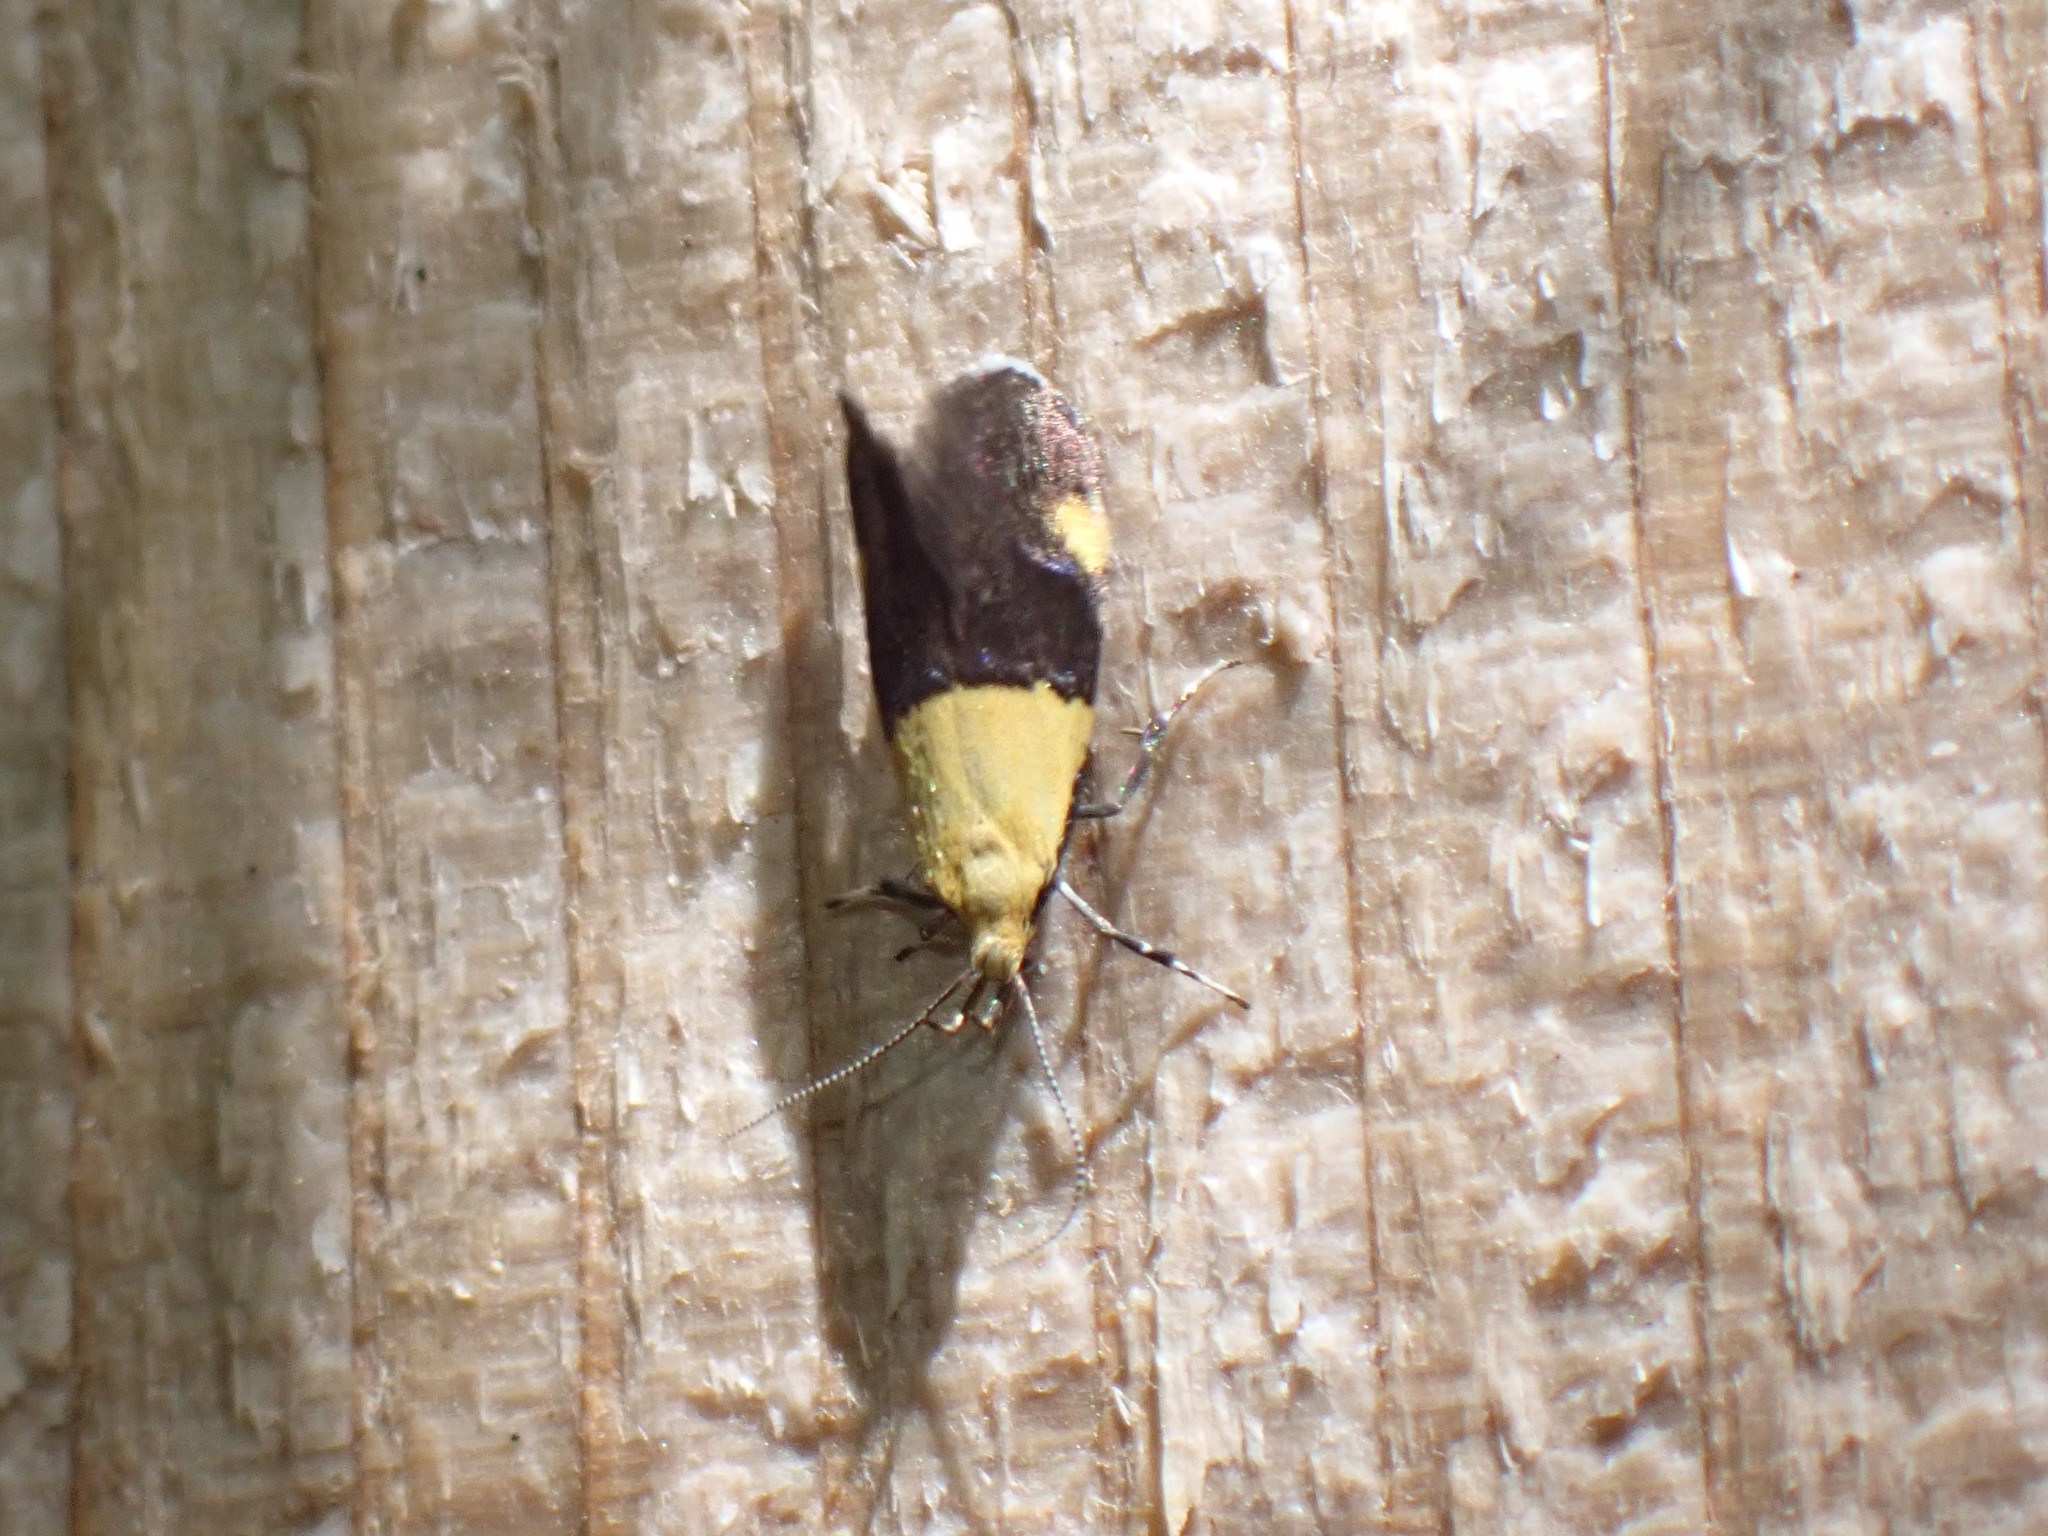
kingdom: Animalia
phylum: Arthropoda
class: Insecta
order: Lepidoptera
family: Oecophoridae
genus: Oecophora
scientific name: Oecophora bractella
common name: Gold-base tubic
